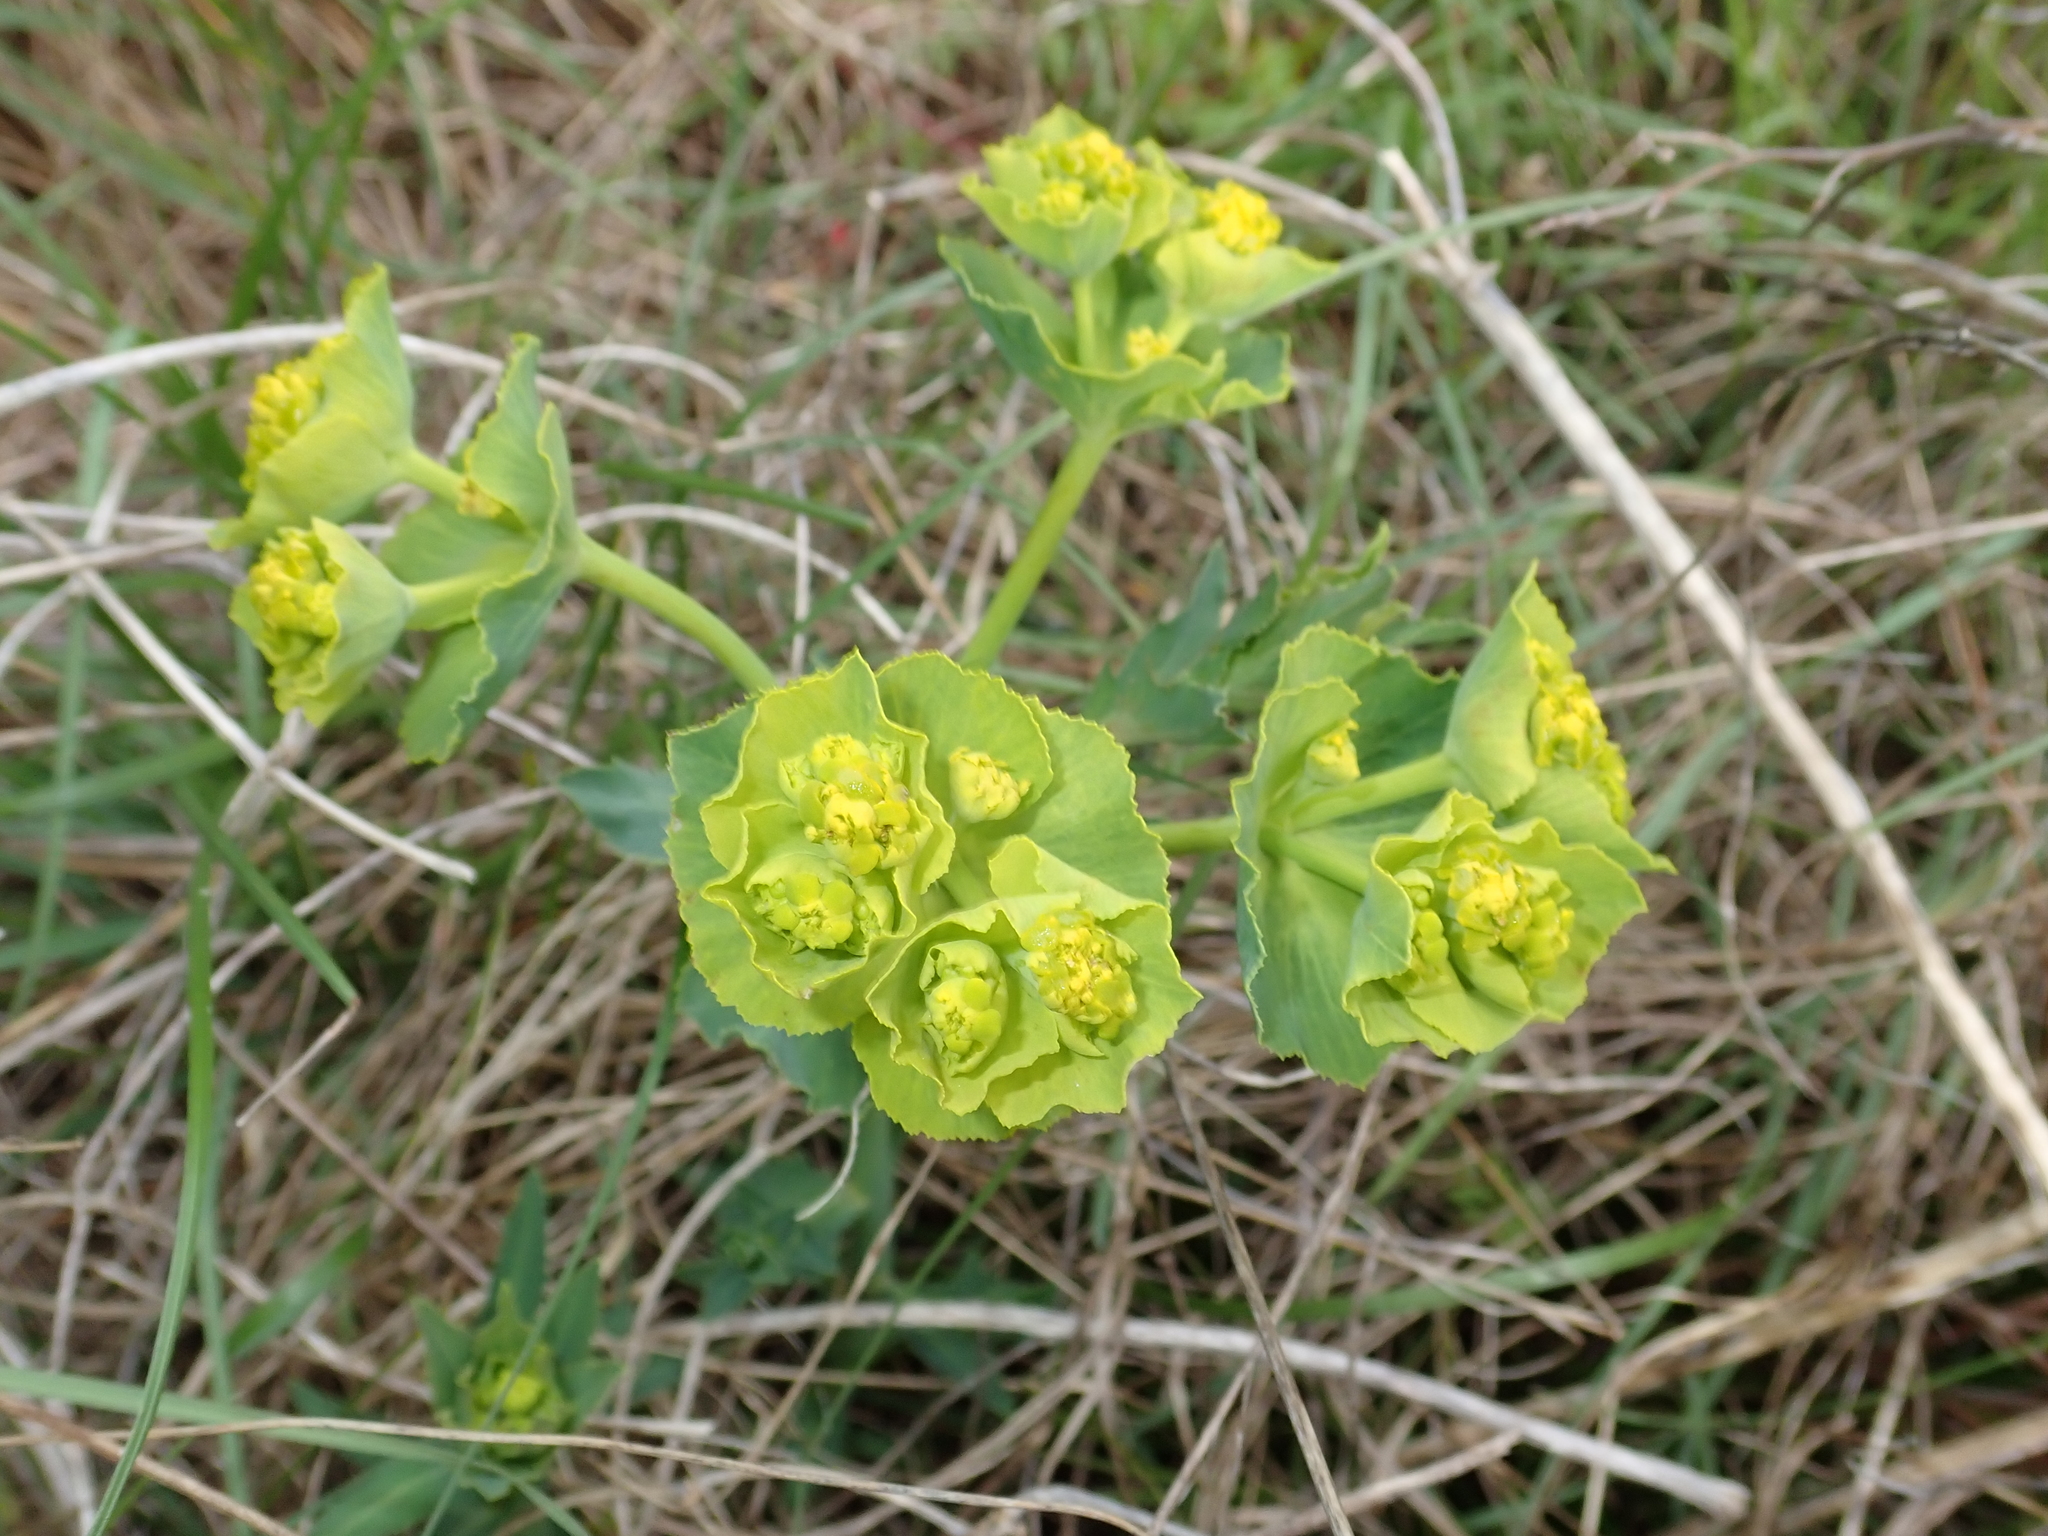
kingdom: Plantae
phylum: Tracheophyta
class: Magnoliopsida
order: Malpighiales
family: Euphorbiaceae
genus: Euphorbia
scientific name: Euphorbia serrata
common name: Serrate spurge
